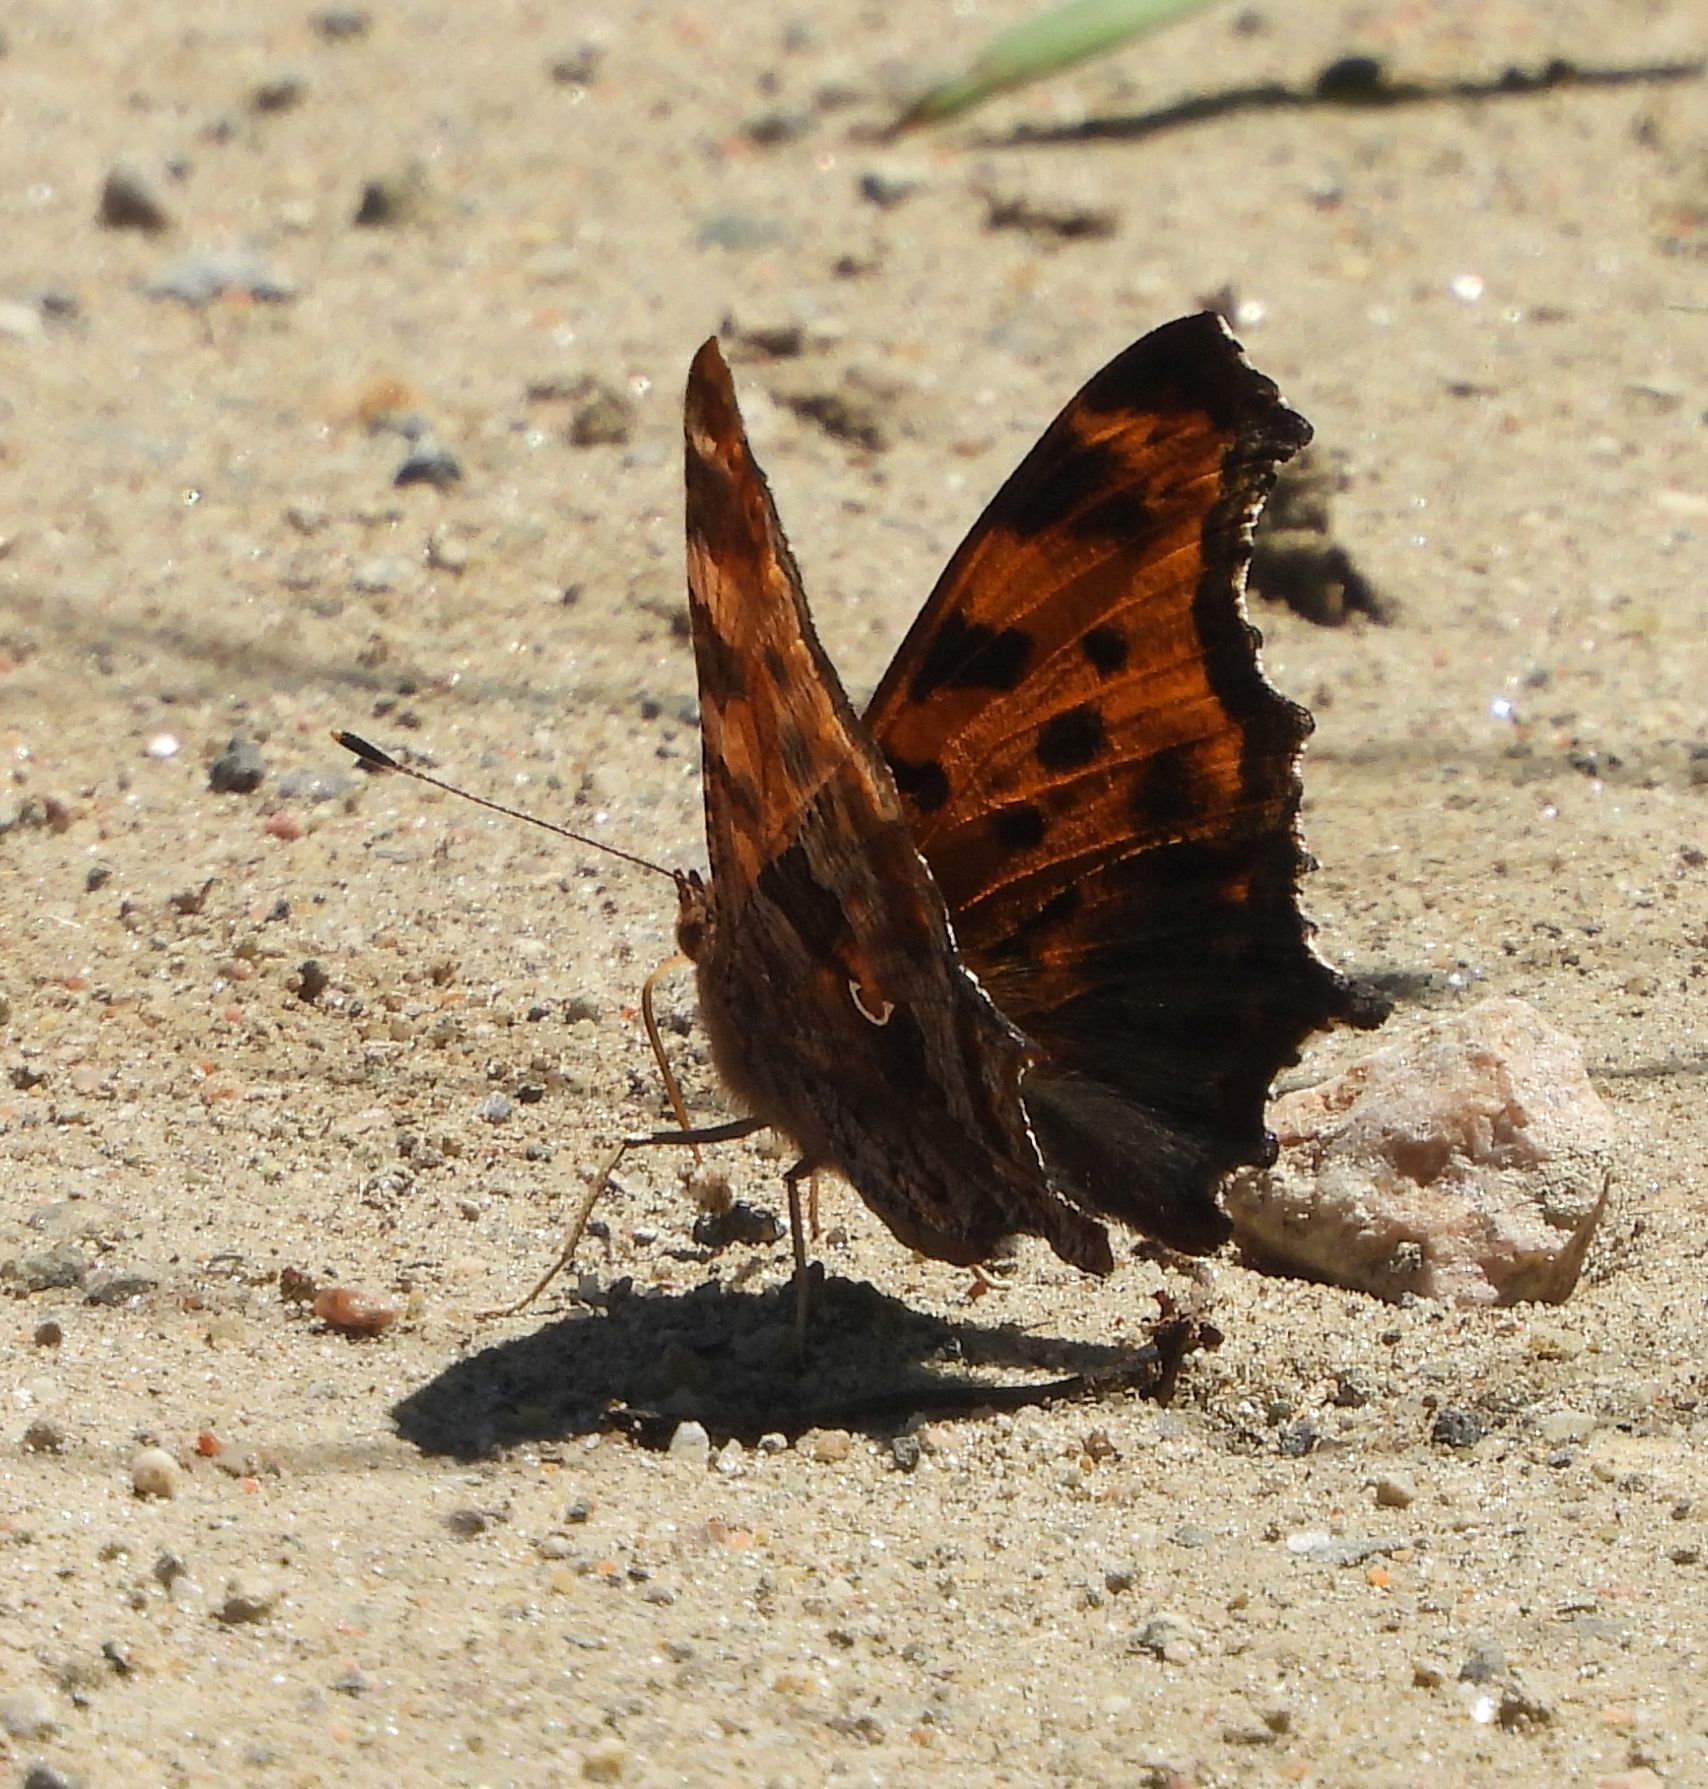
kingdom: Animalia
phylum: Arthropoda
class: Insecta
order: Lepidoptera
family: Nymphalidae
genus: Polygonia
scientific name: Polygonia comma
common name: Eastern comma
